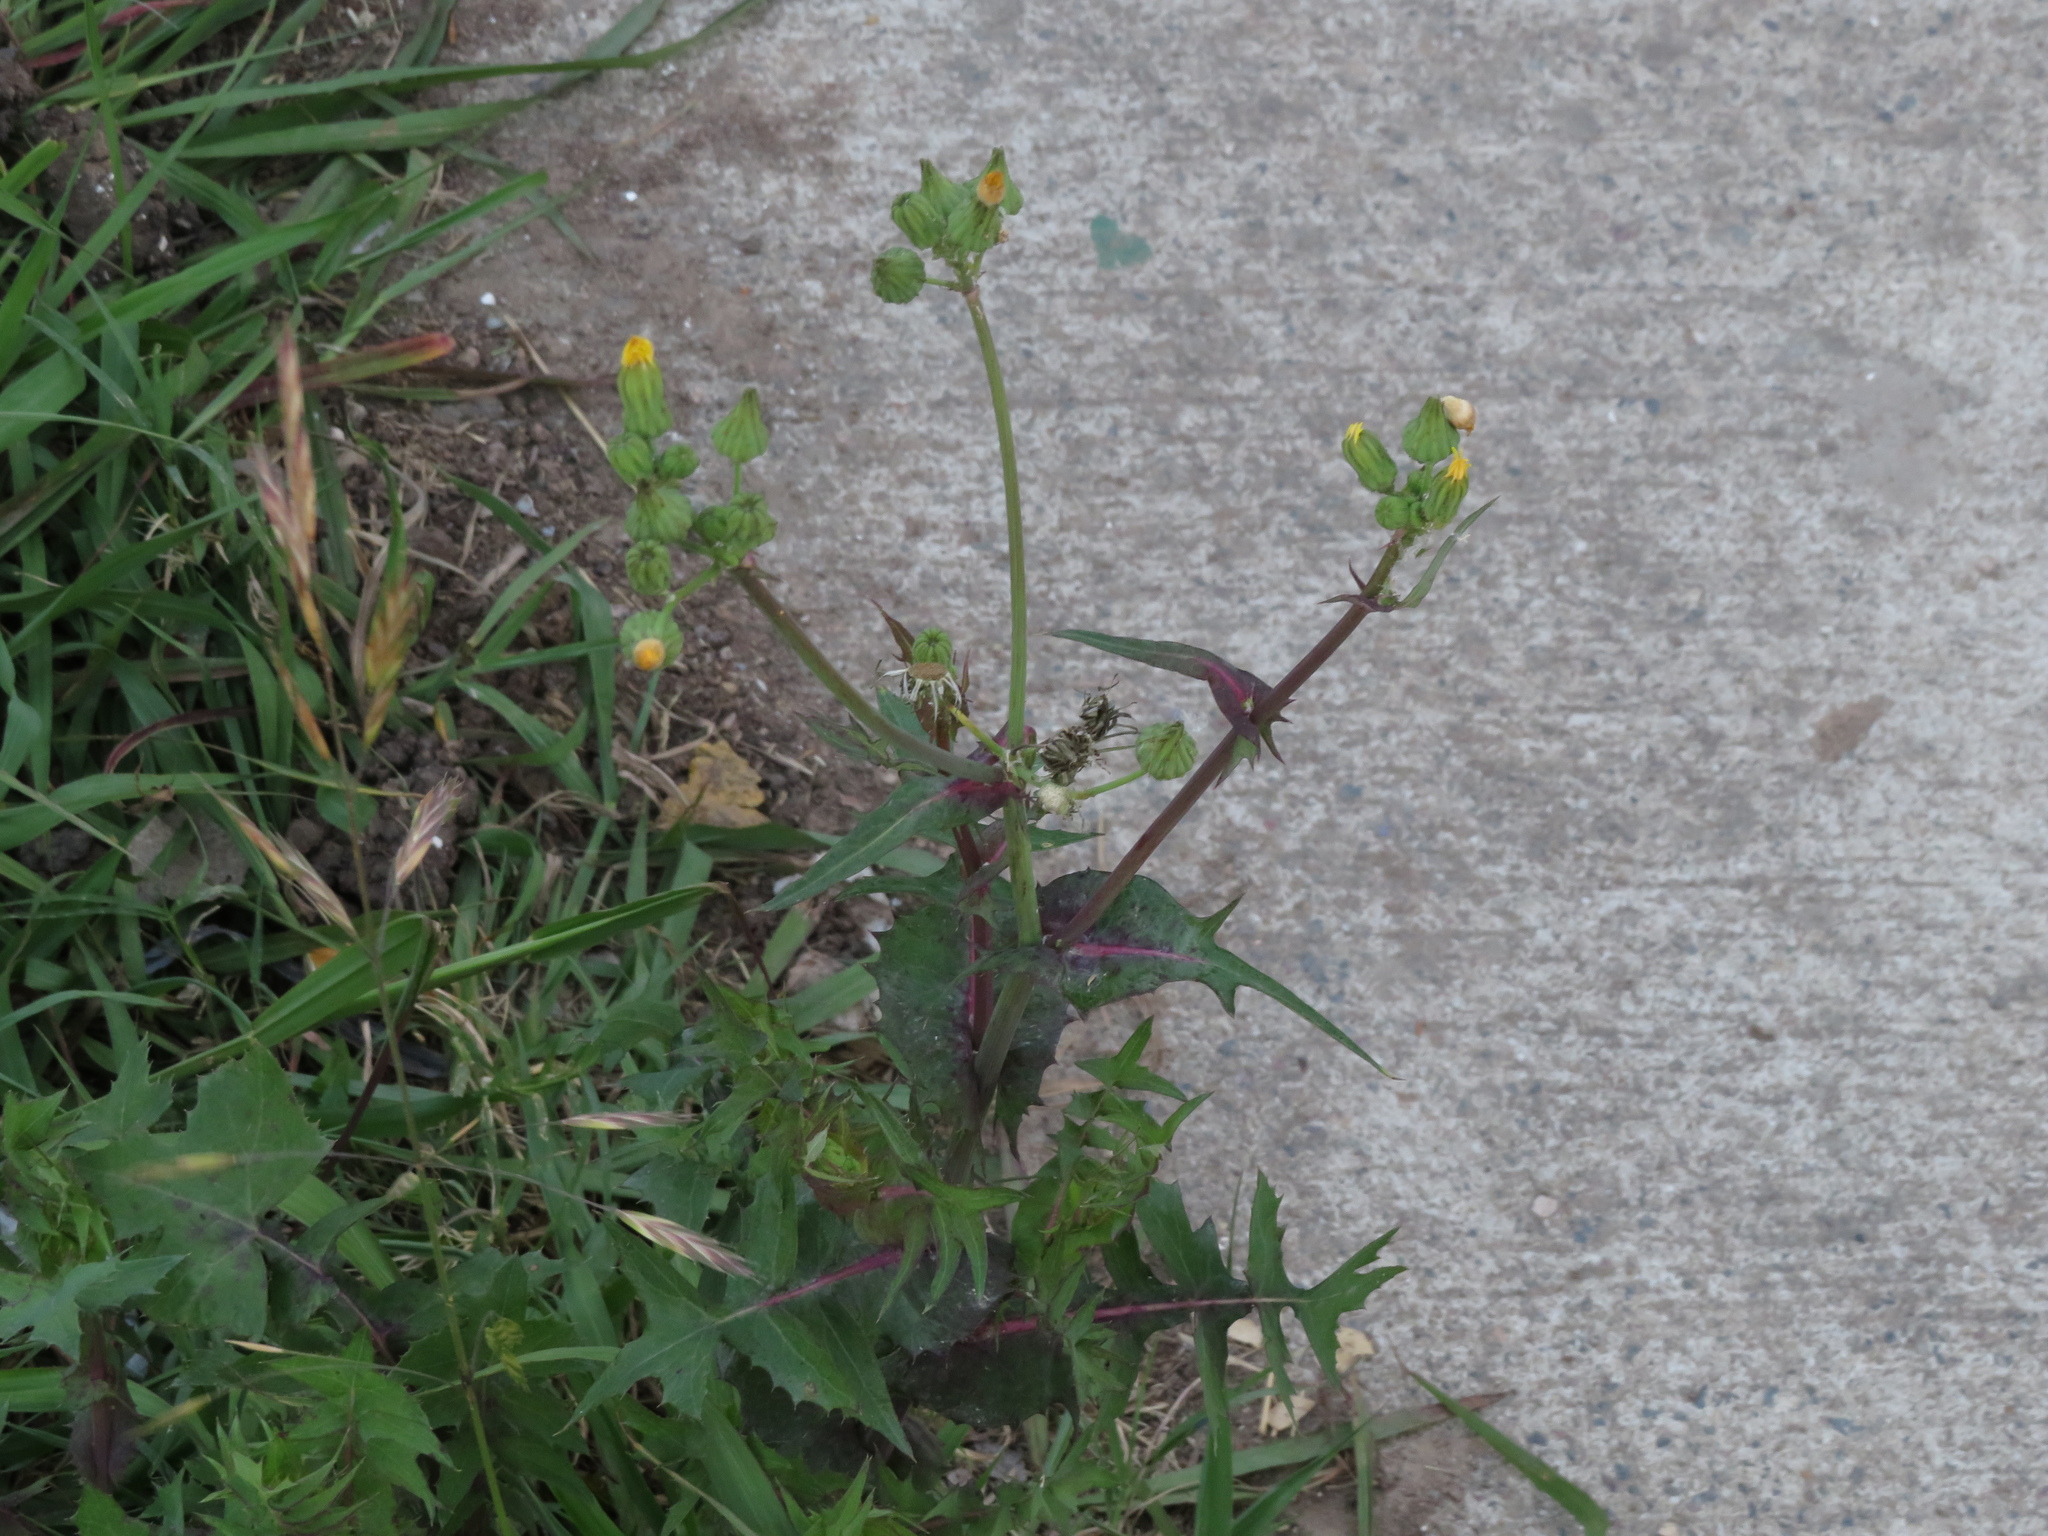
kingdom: Plantae
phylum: Tracheophyta
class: Magnoliopsida
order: Asterales
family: Asteraceae
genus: Sonchus
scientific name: Sonchus oleraceus
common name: Common sowthistle
